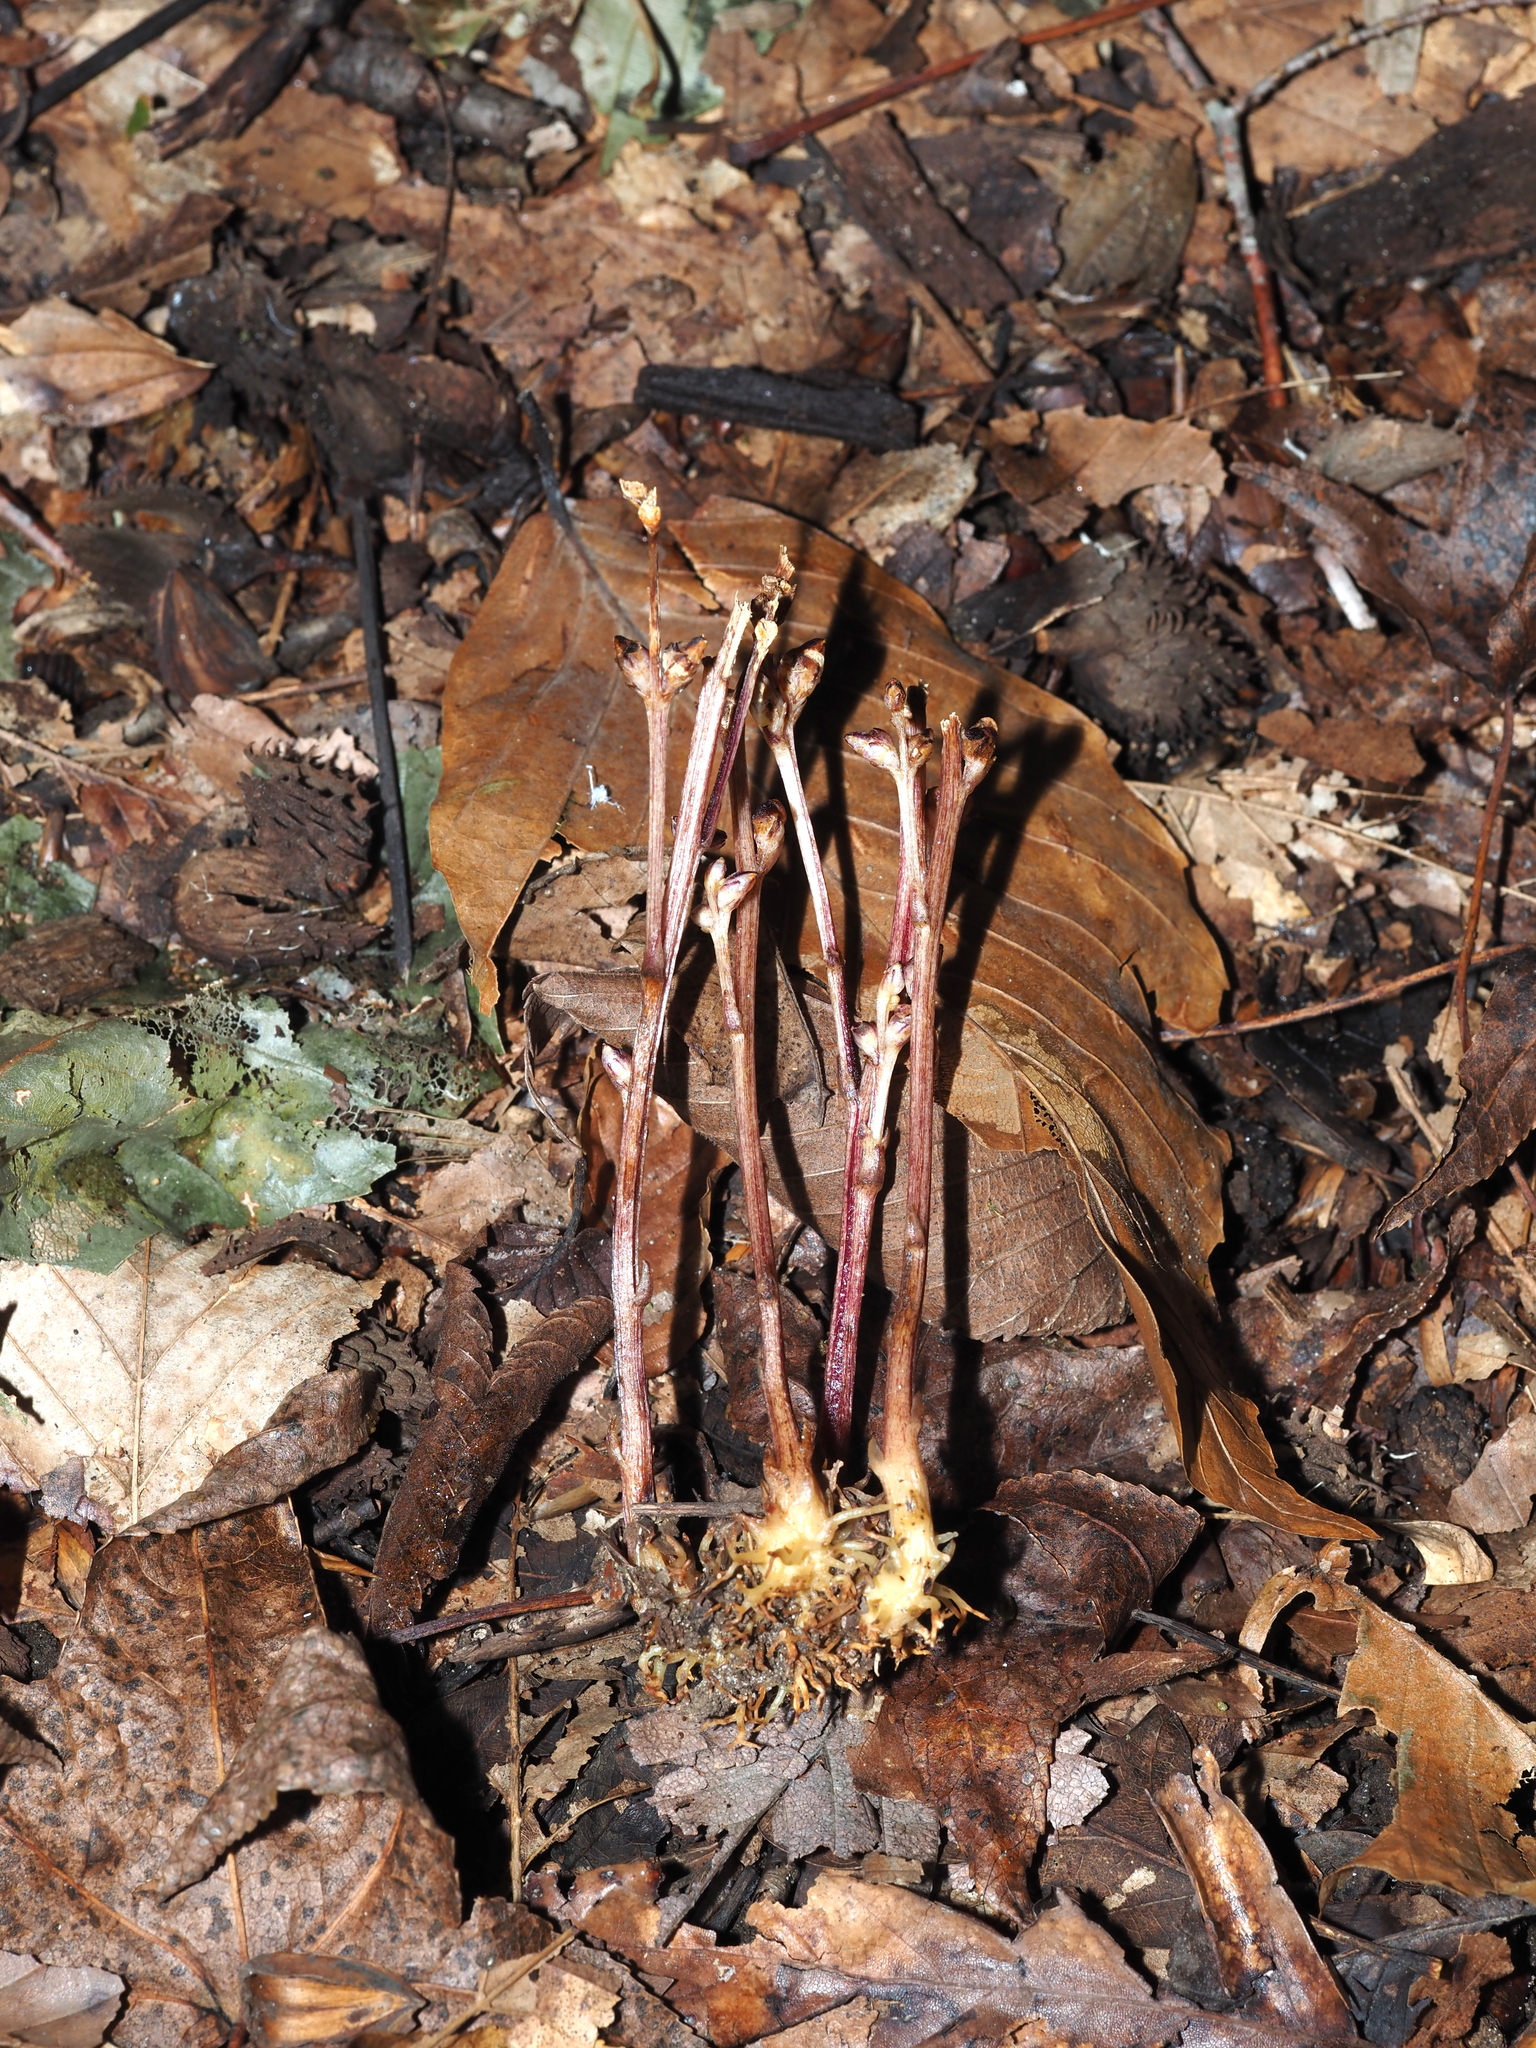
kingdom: Plantae
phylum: Tracheophyta
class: Magnoliopsida
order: Lamiales
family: Orobanchaceae
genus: Epifagus
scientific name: Epifagus virginiana
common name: Beechdrops
